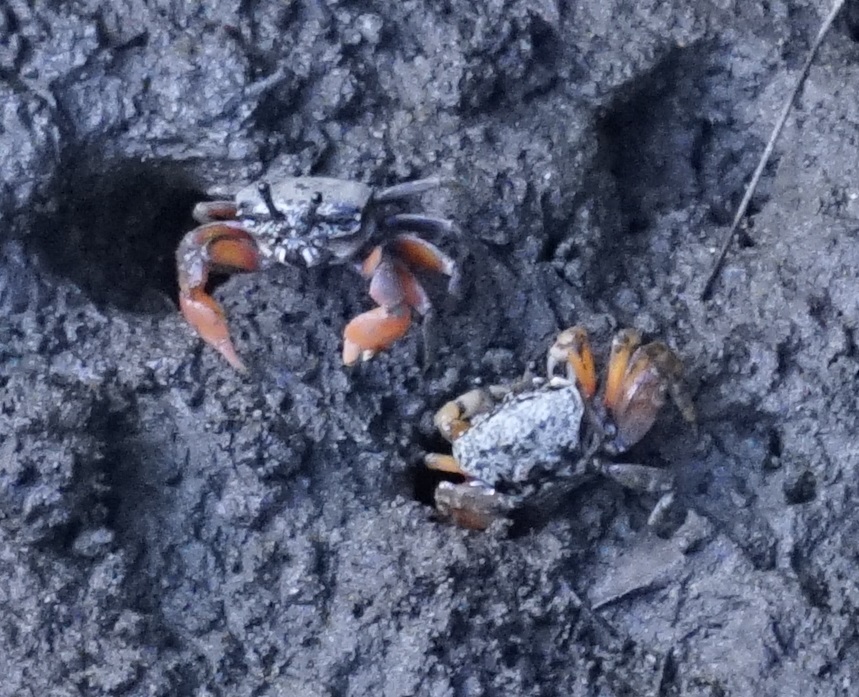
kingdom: Animalia
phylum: Arthropoda
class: Malacostraca
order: Decapoda
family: Heloeciidae
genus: Heloecius
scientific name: Heloecius cordiformis
